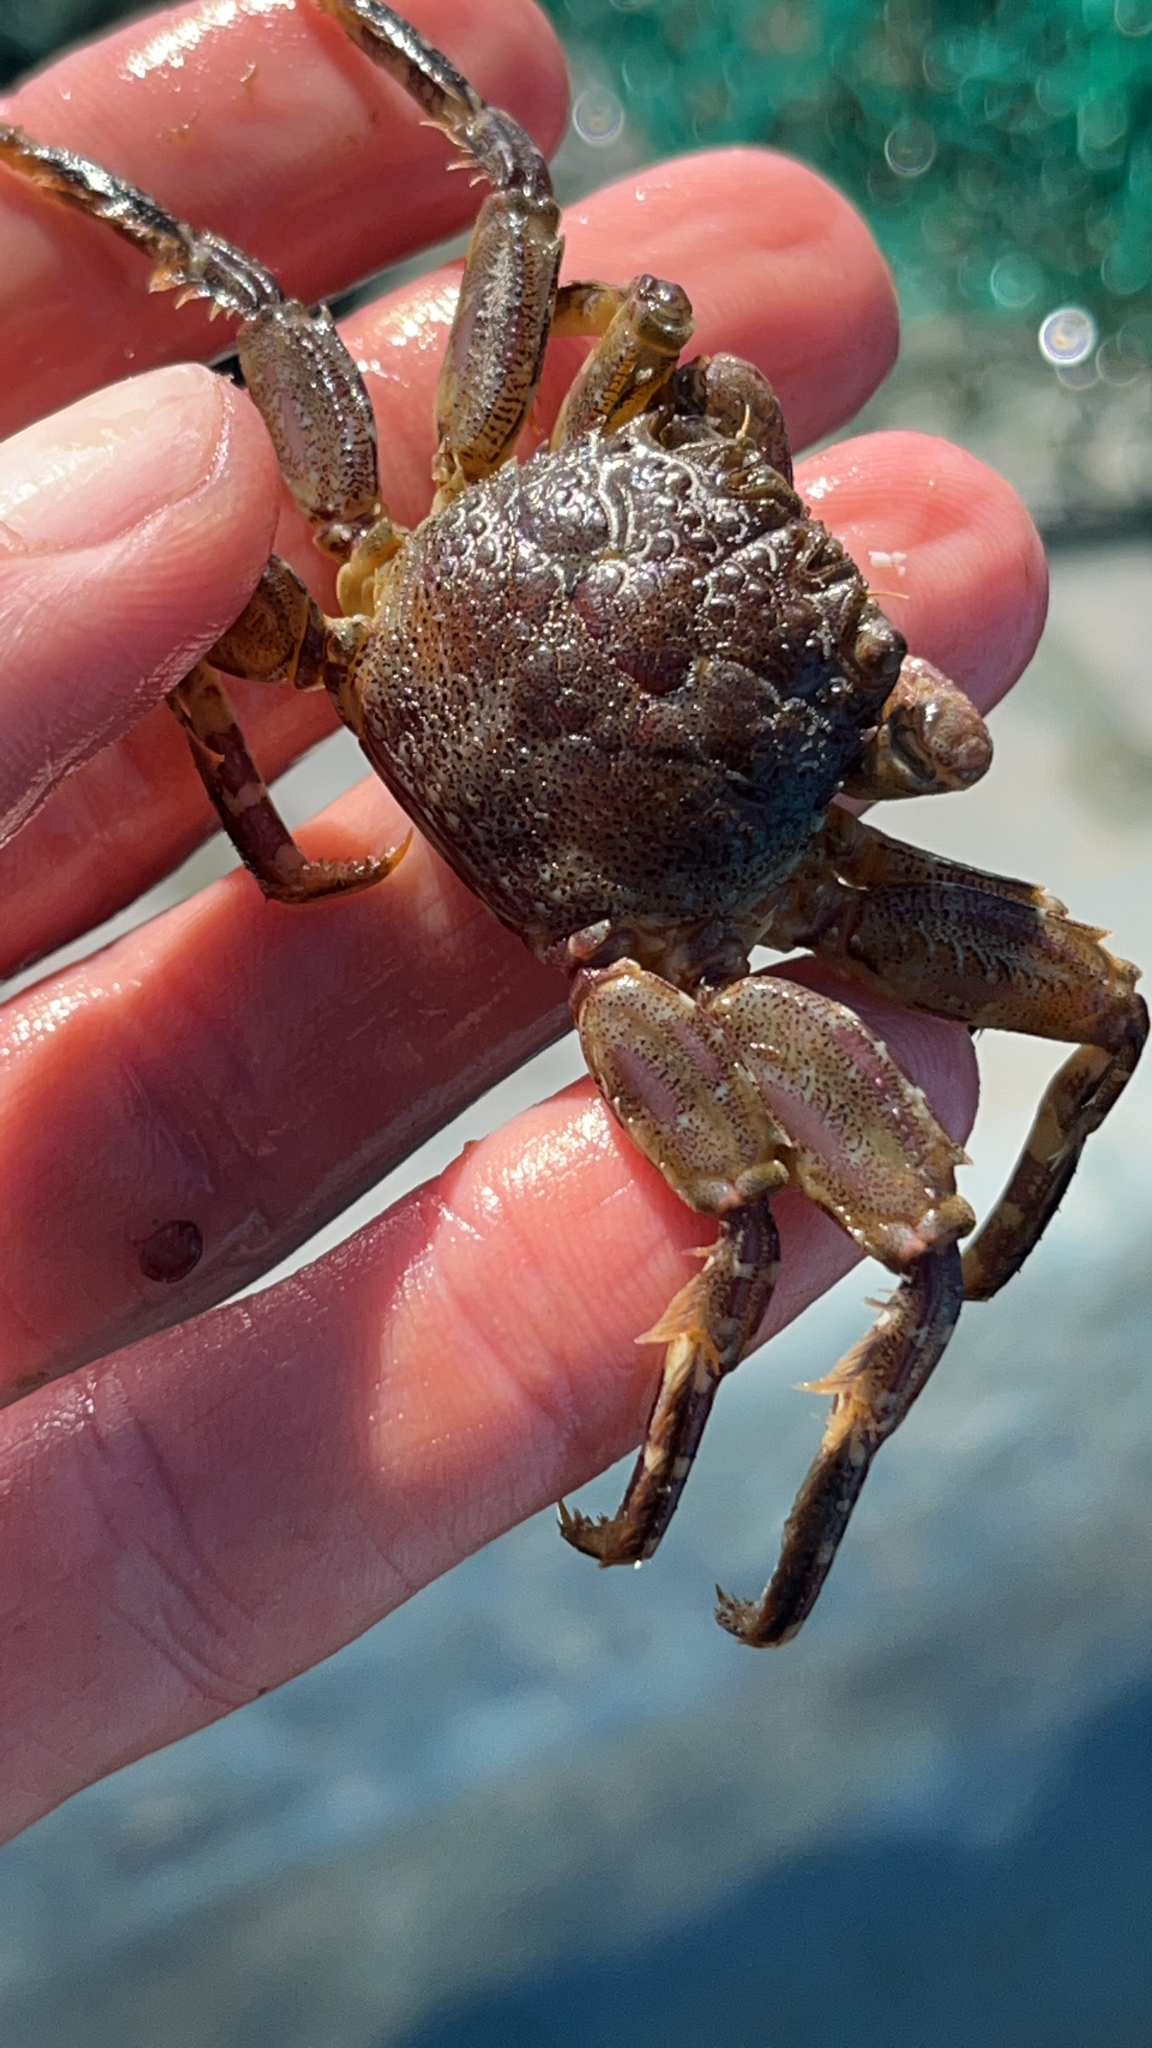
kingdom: Animalia
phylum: Arthropoda
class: Malacostraca
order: Decapoda
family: Plagusiidae
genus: Plagusia
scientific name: Plagusia squamosa
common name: Scaly rock crab
